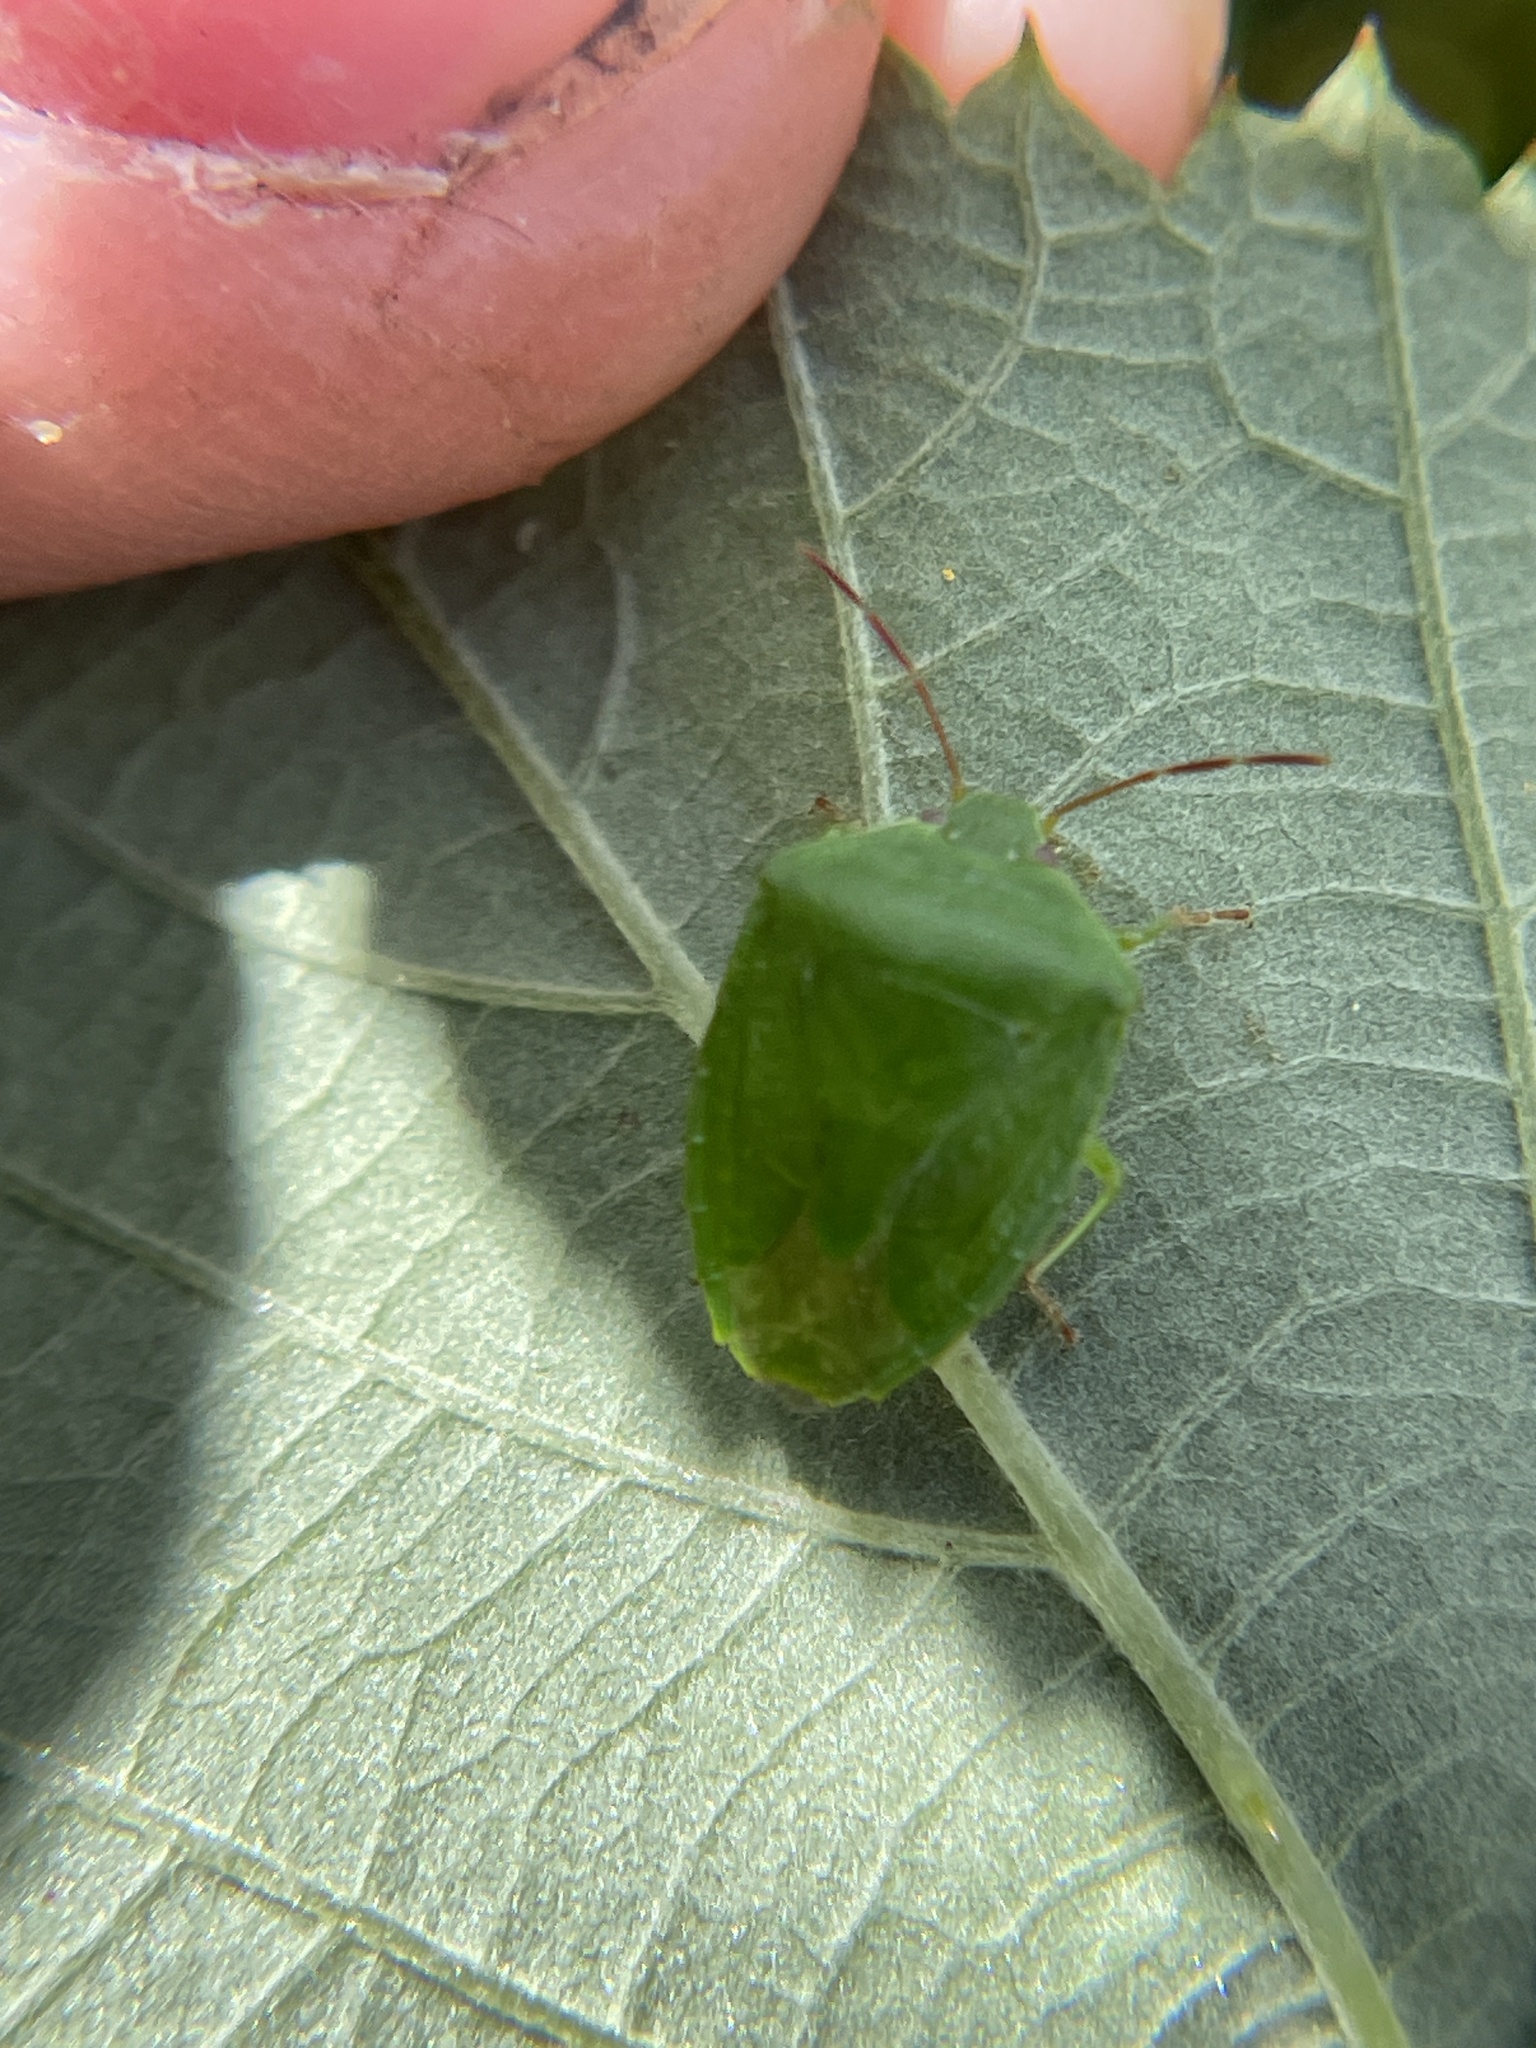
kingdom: Animalia
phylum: Arthropoda
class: Insecta
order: Hemiptera
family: Pentatomidae
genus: Cuspicona
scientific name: Cuspicona privata
